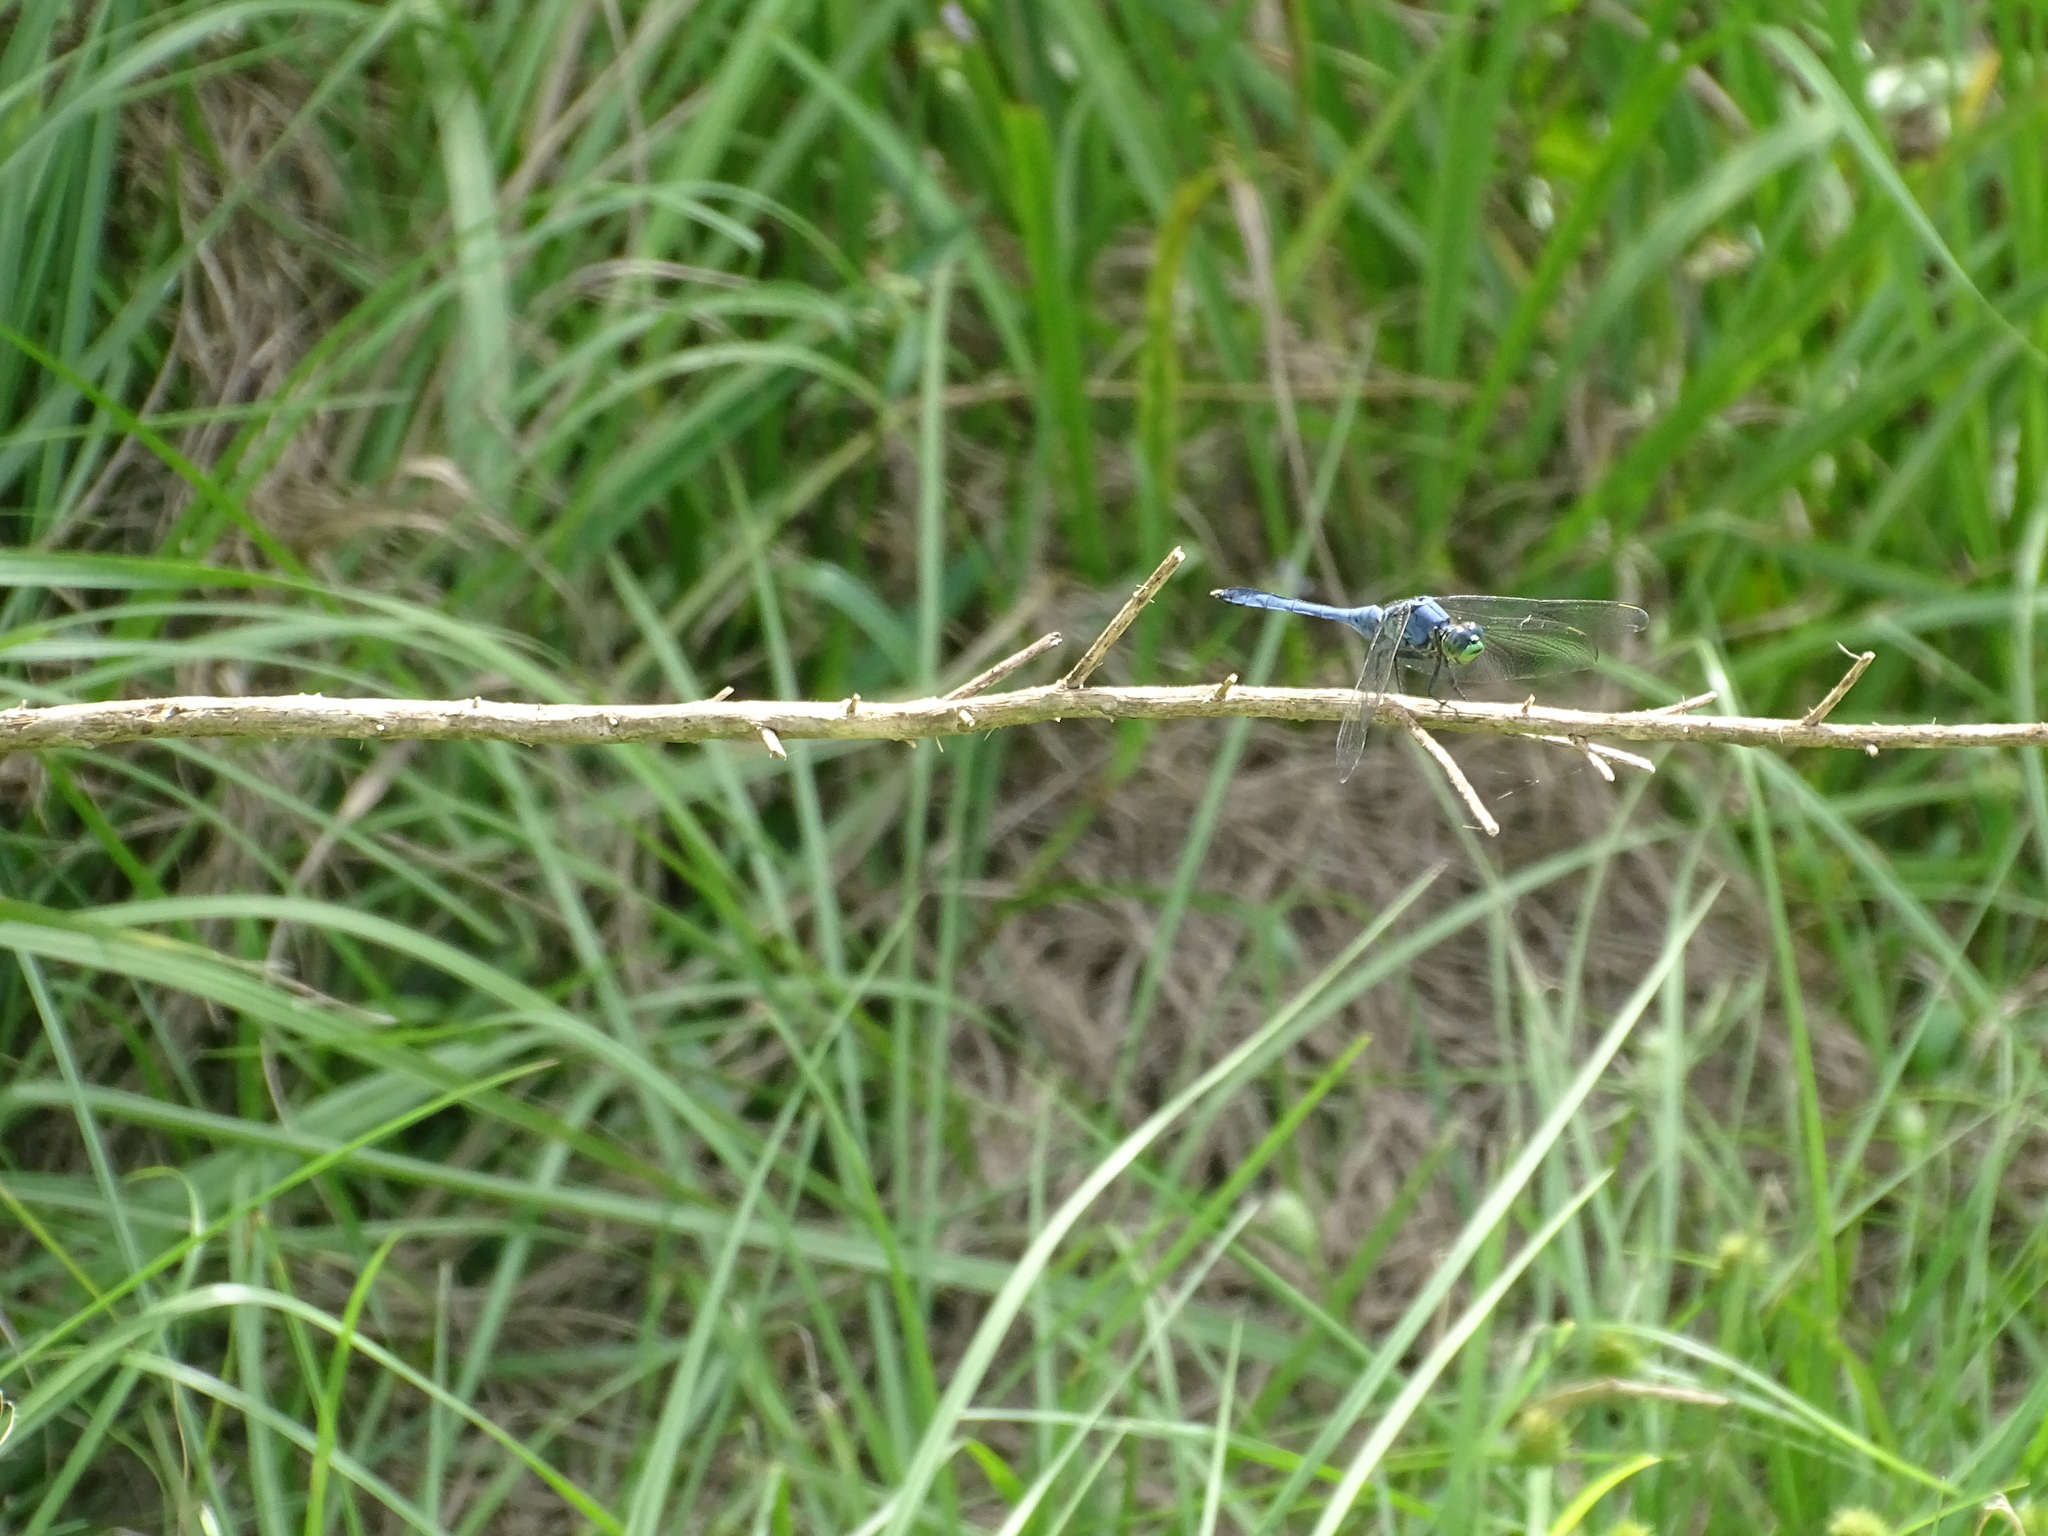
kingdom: Animalia
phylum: Arthropoda
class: Insecta
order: Odonata
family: Libellulidae
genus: Erythemis
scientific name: Erythemis simplicicollis
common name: Eastern pondhawk
